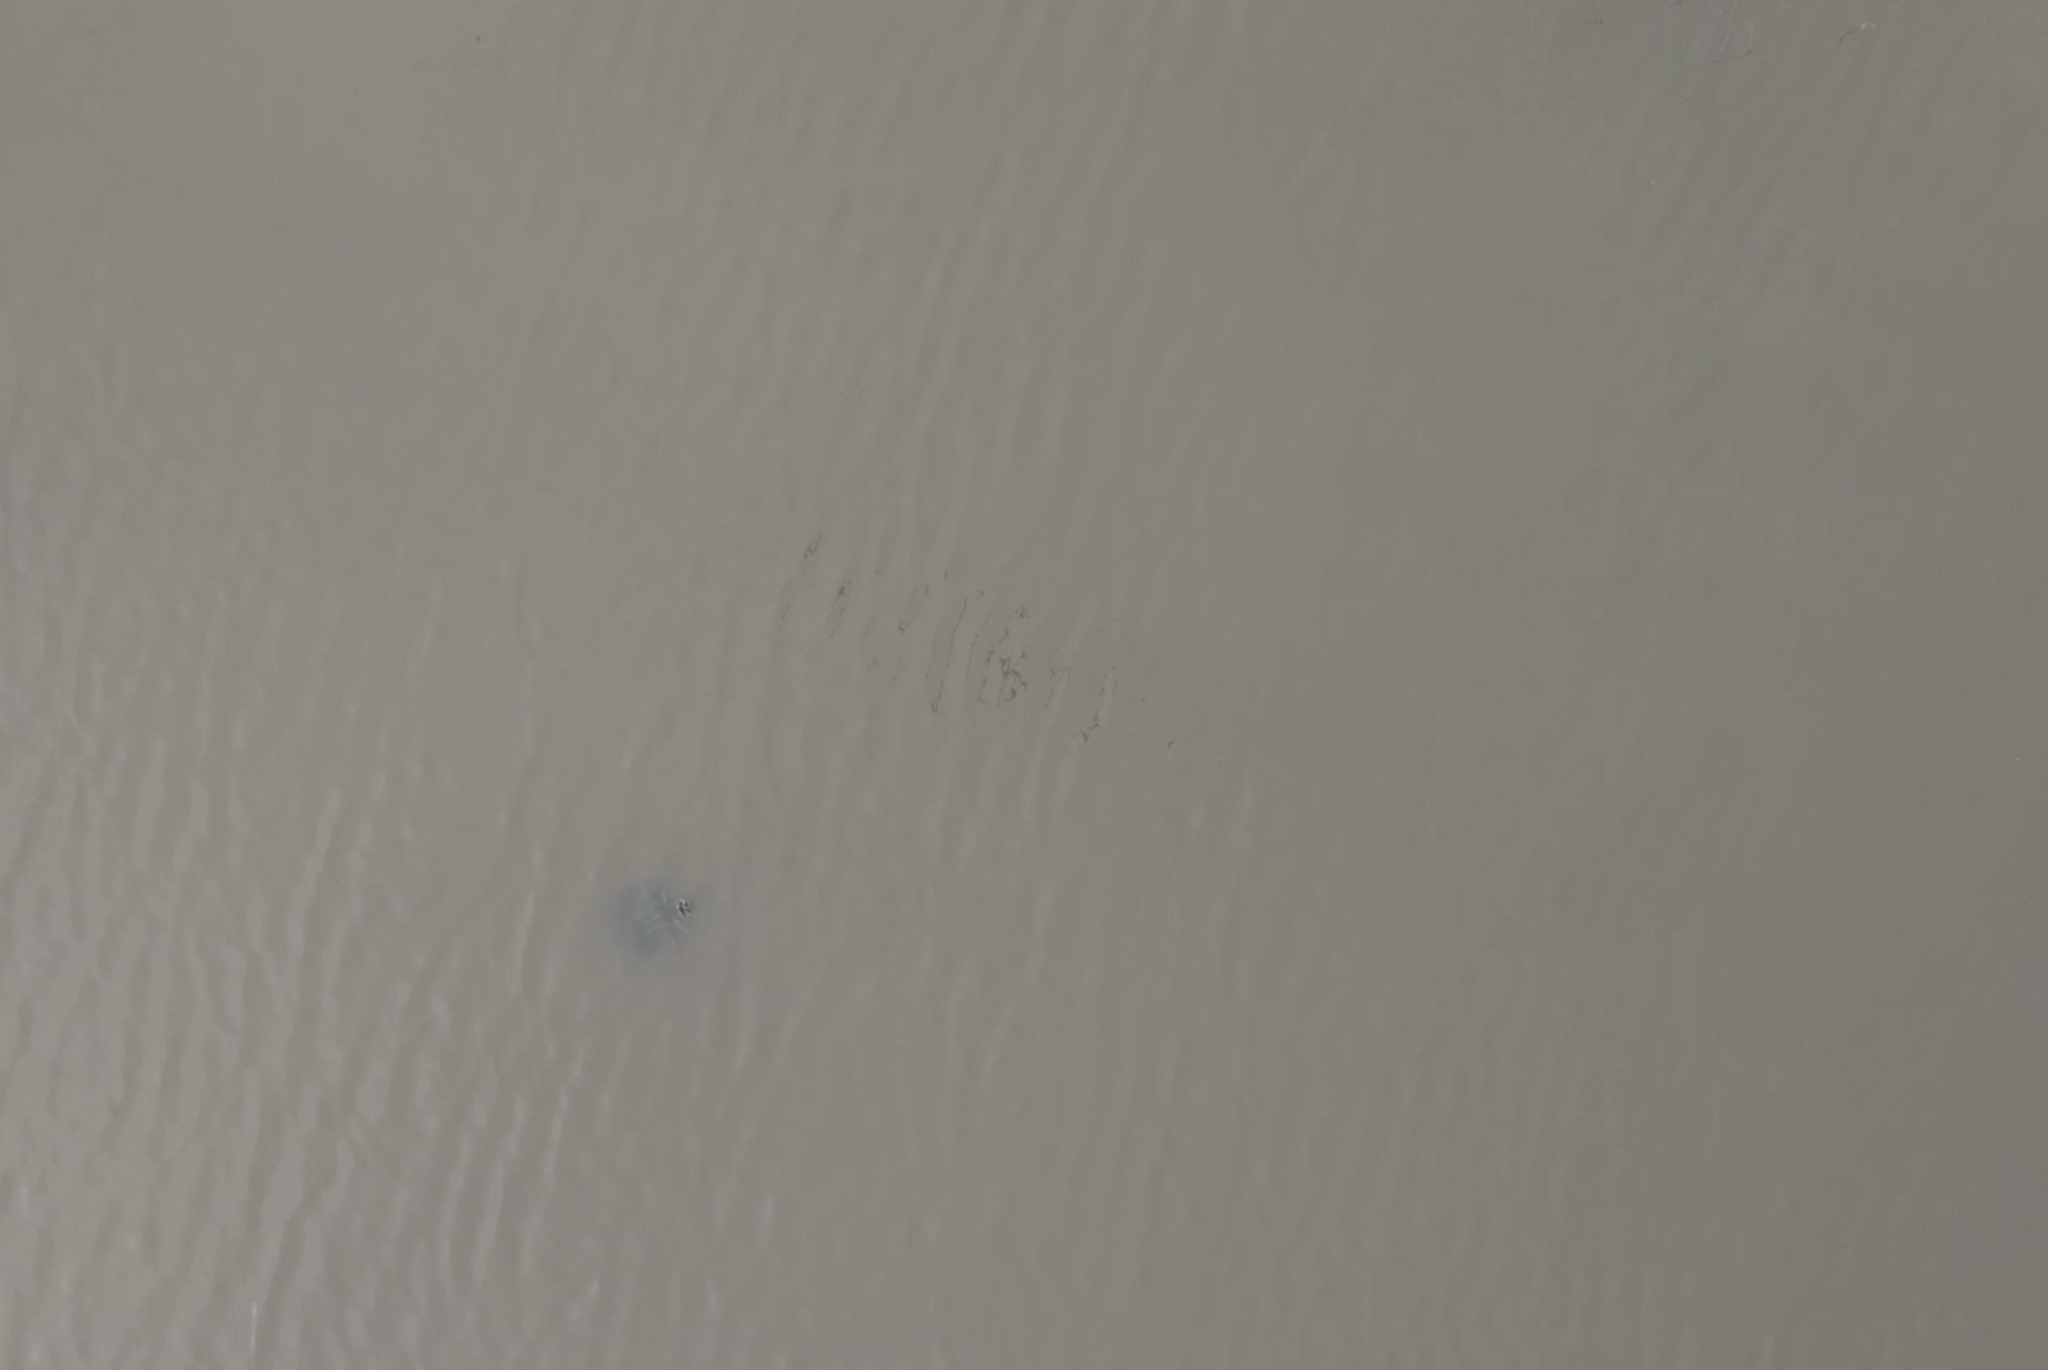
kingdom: Animalia
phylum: Chordata
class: Testudines
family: Emydidae
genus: Trachemys
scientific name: Trachemys scripta
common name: Slider
